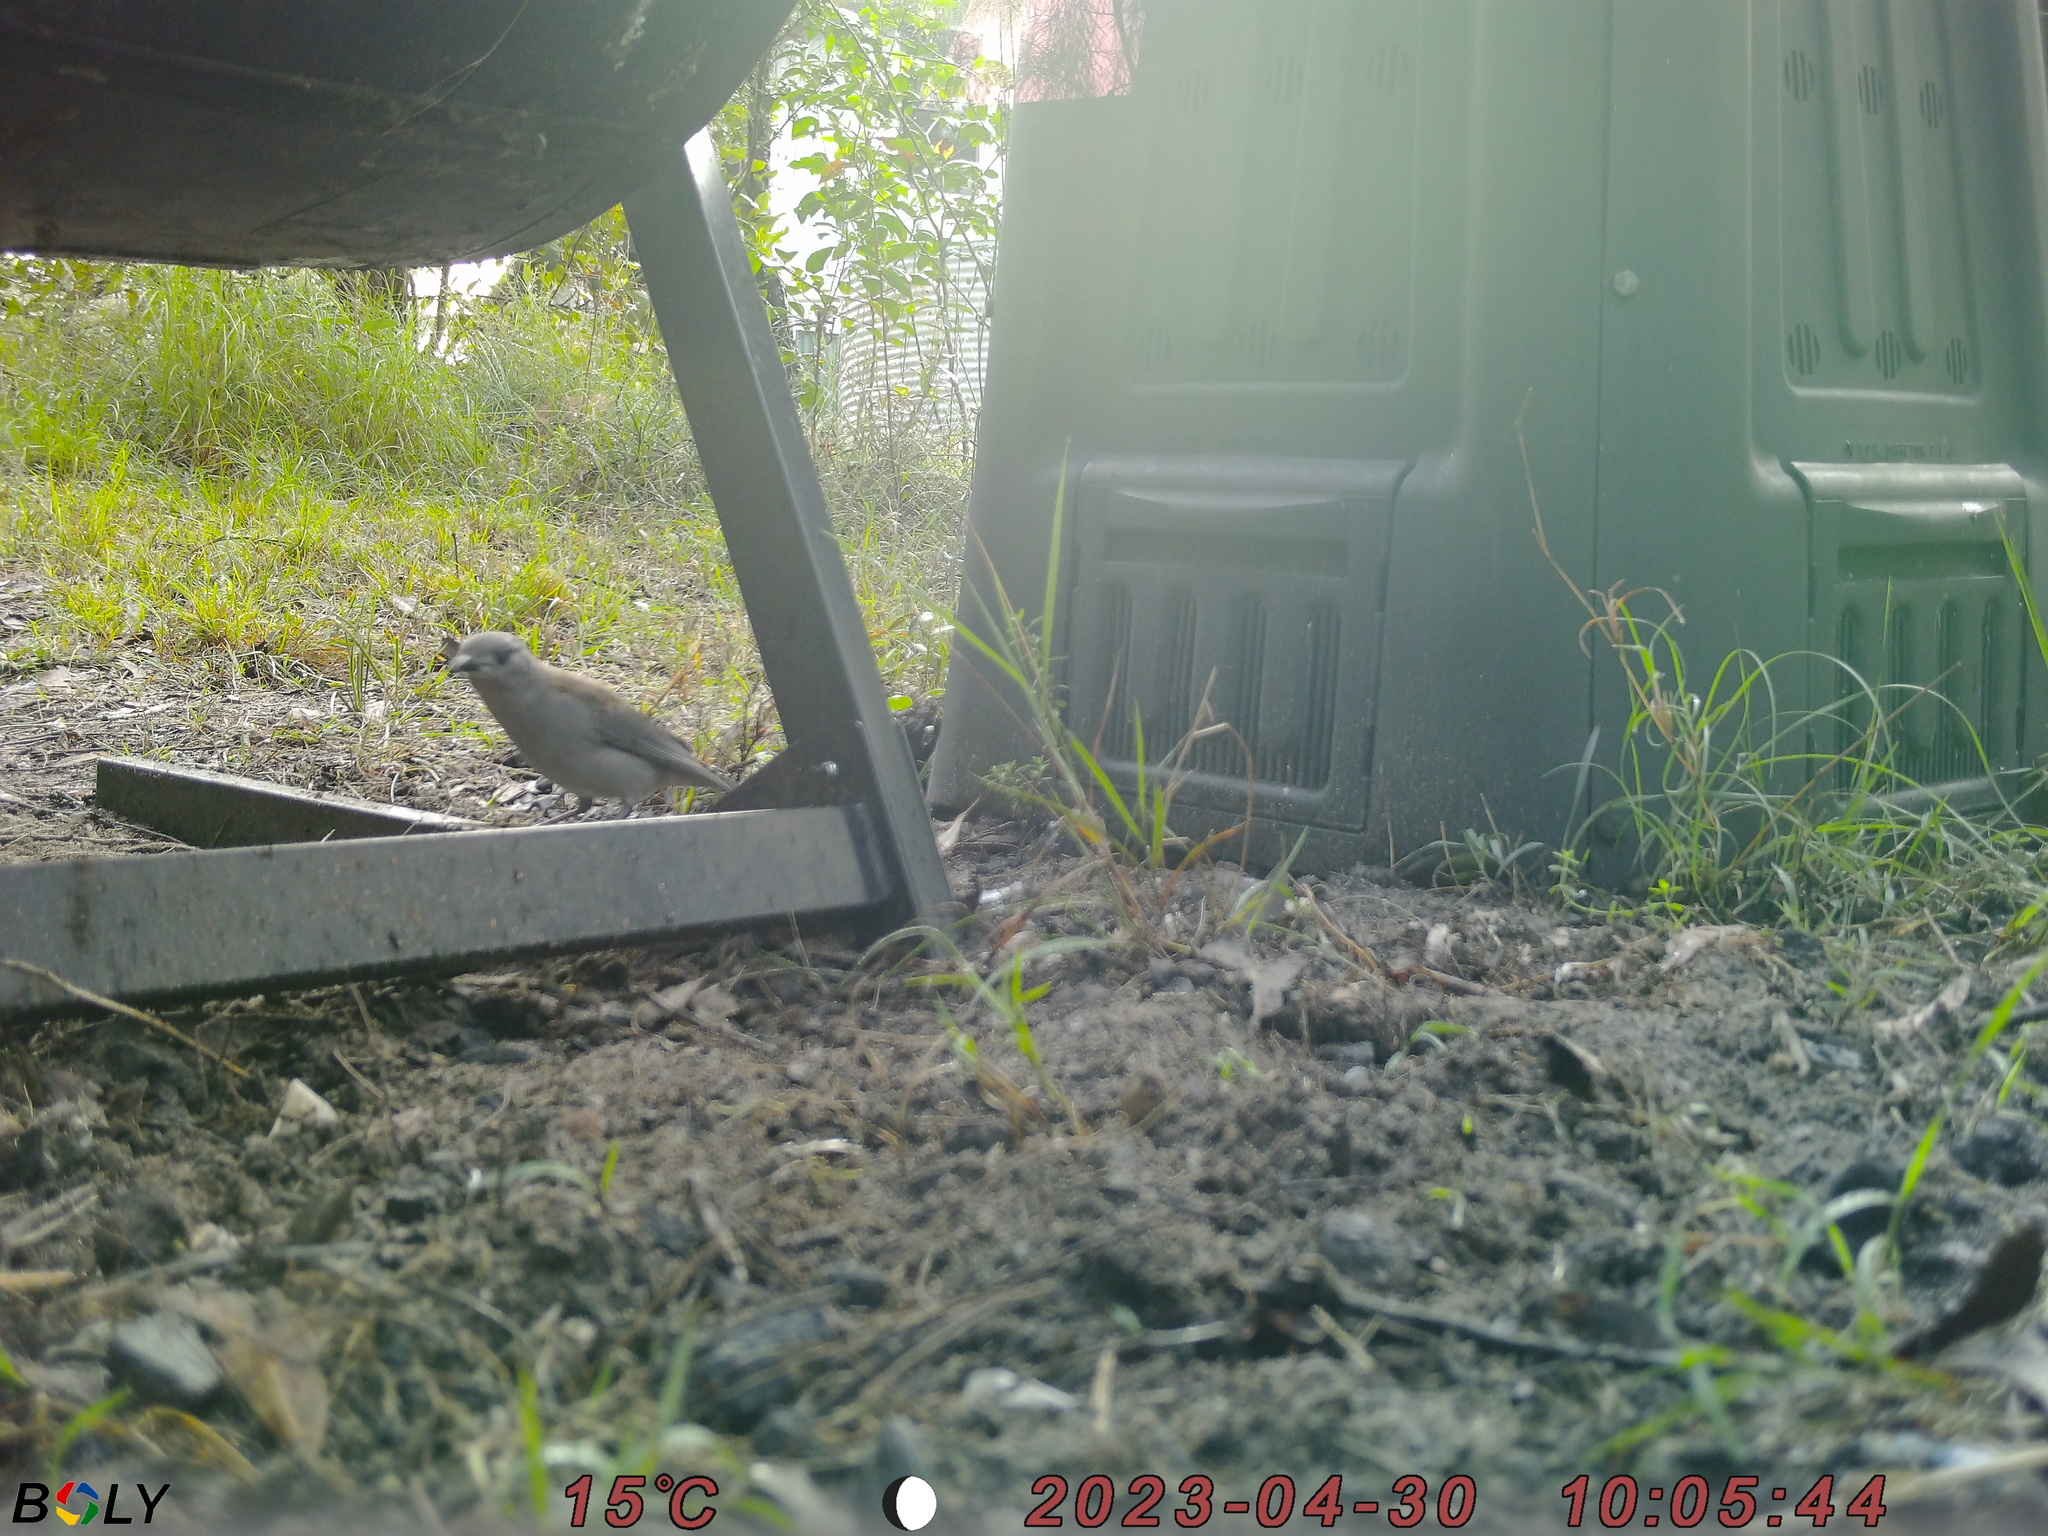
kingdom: Animalia
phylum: Chordata
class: Aves
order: Passeriformes
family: Pachycephalidae
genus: Colluricincla
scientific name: Colluricincla harmonica
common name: Grey shrikethrush
